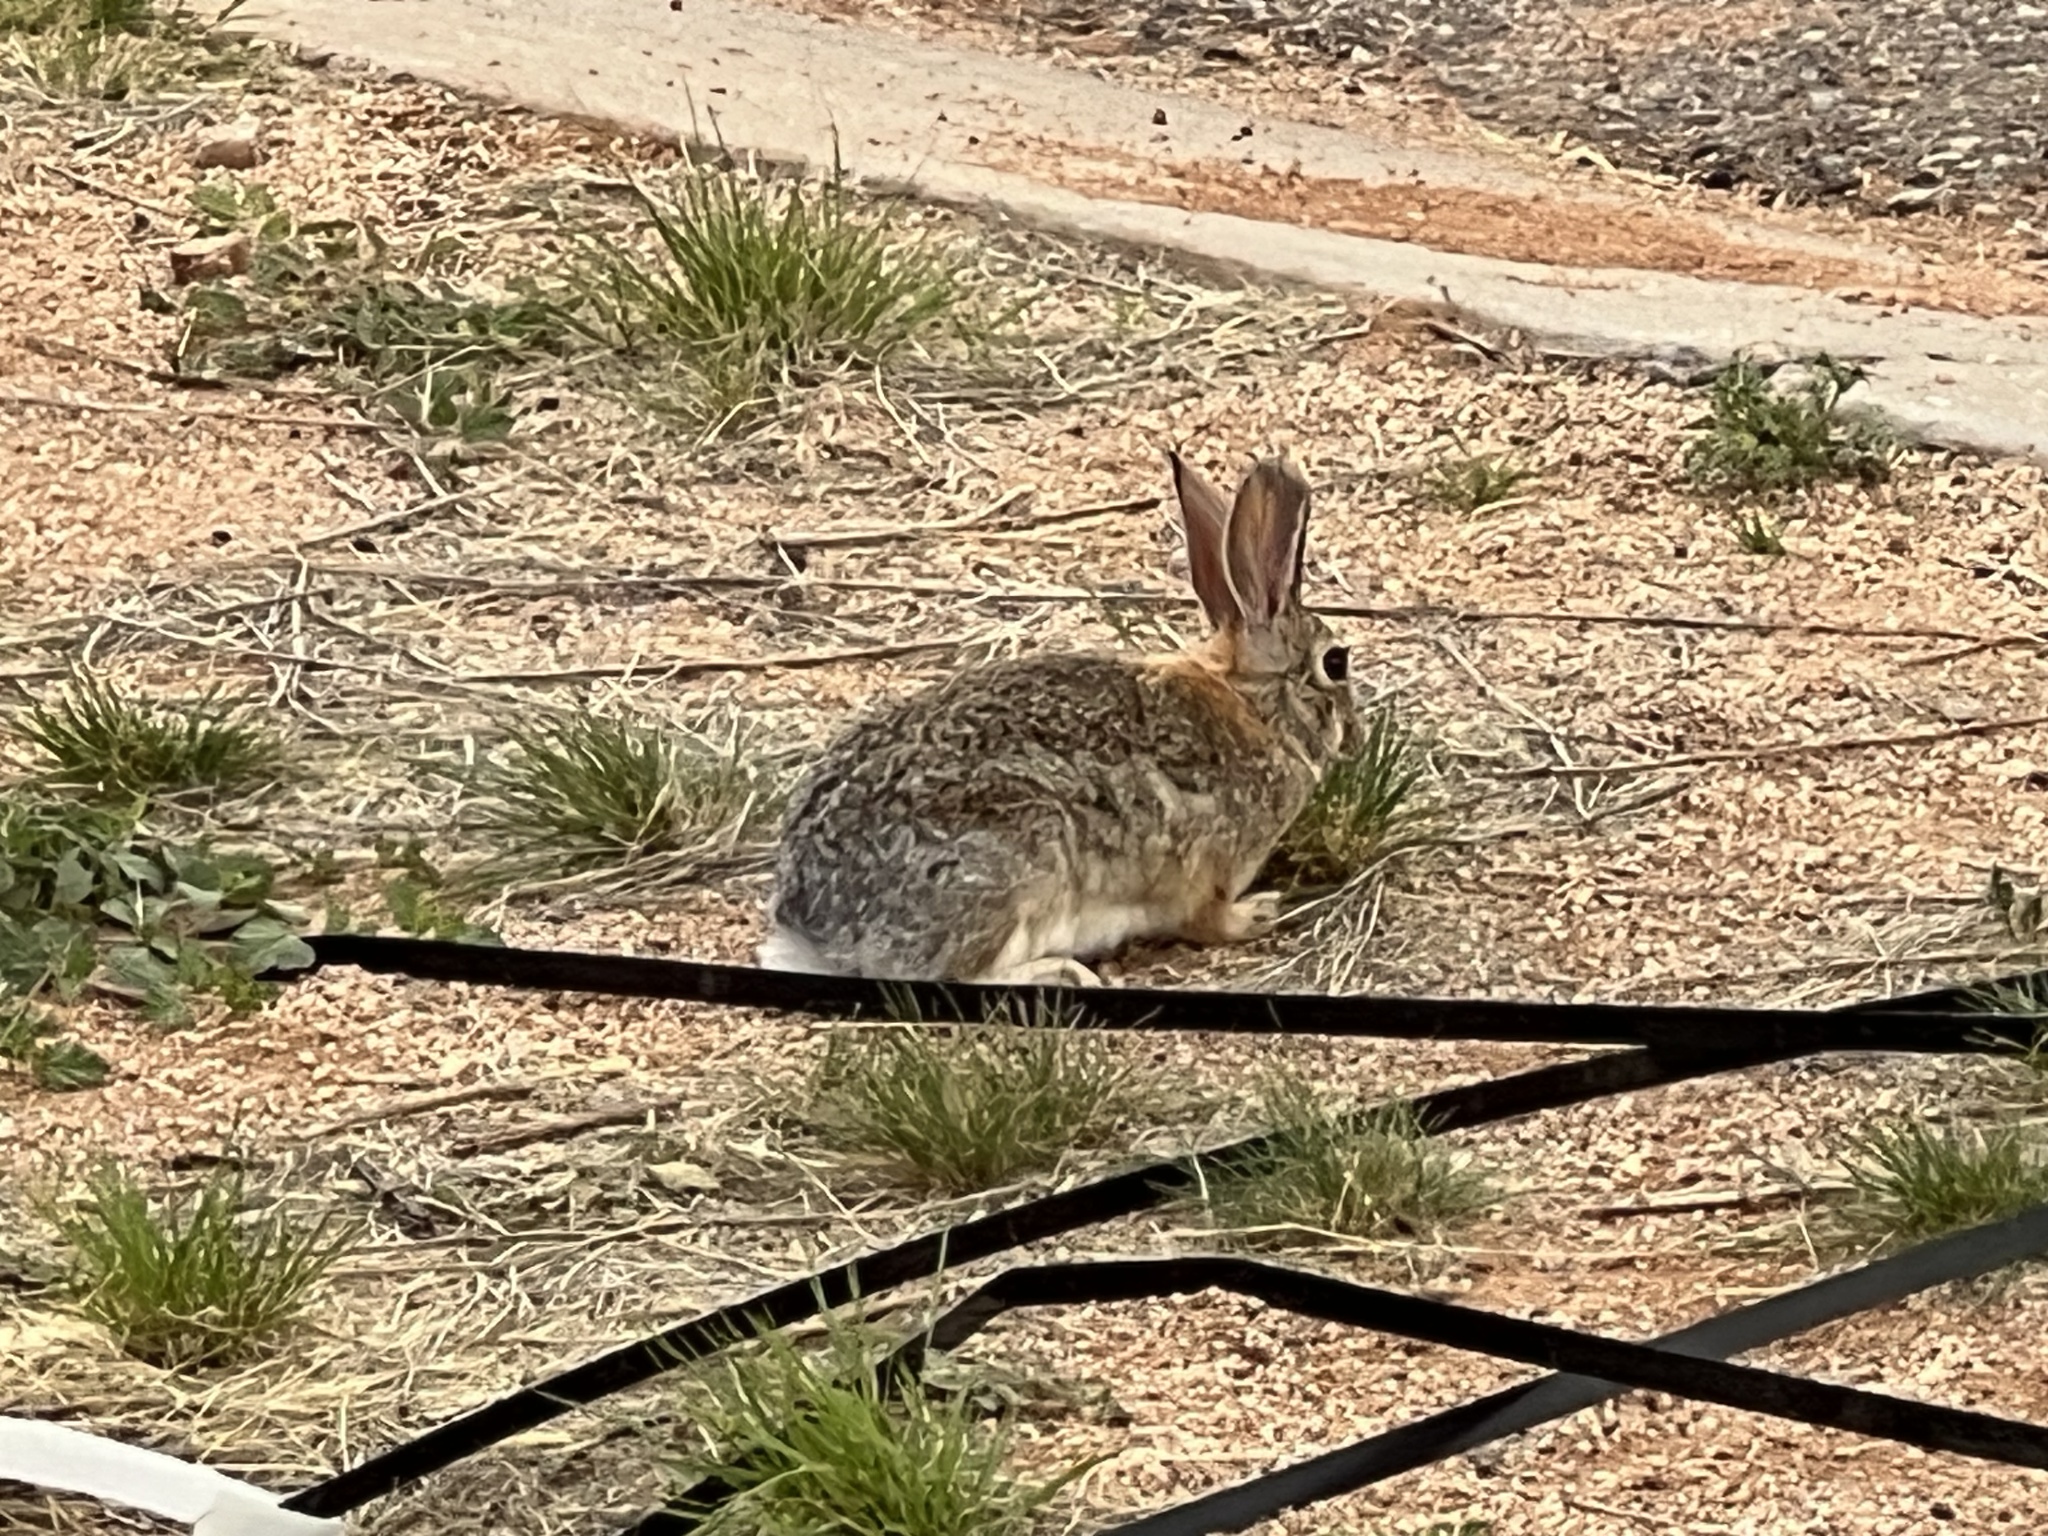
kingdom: Animalia
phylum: Chordata
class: Mammalia
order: Lagomorpha
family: Leporidae
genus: Sylvilagus
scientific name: Sylvilagus audubonii
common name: Desert cottontail
